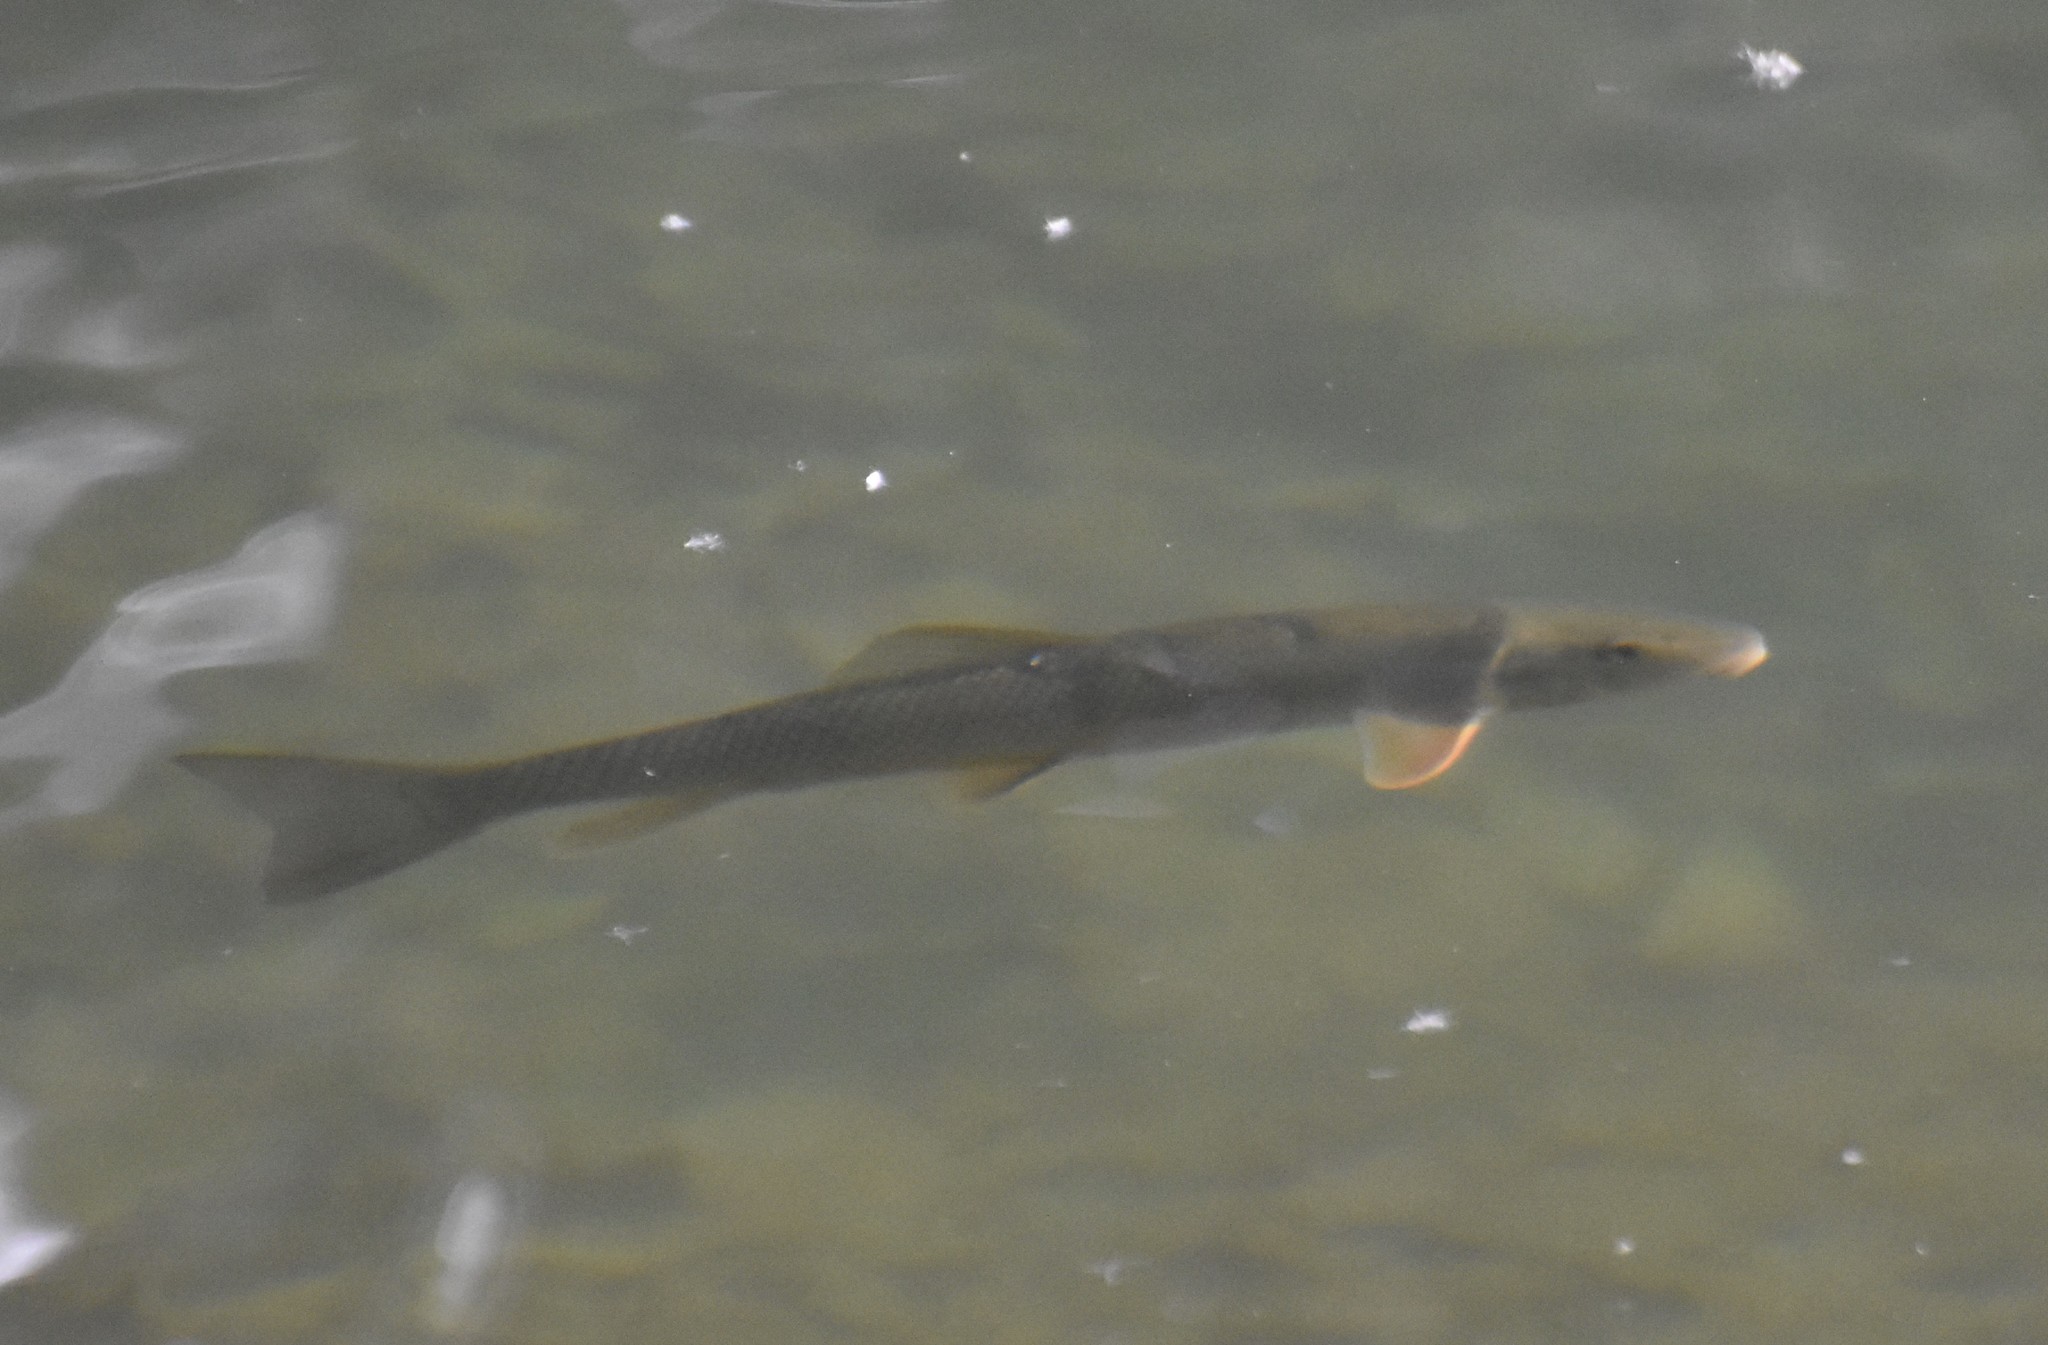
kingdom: Animalia
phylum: Chordata
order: Cypriniformes
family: Catostomidae
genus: Catostomus
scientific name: Catostomus commersonii
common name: White sucker
